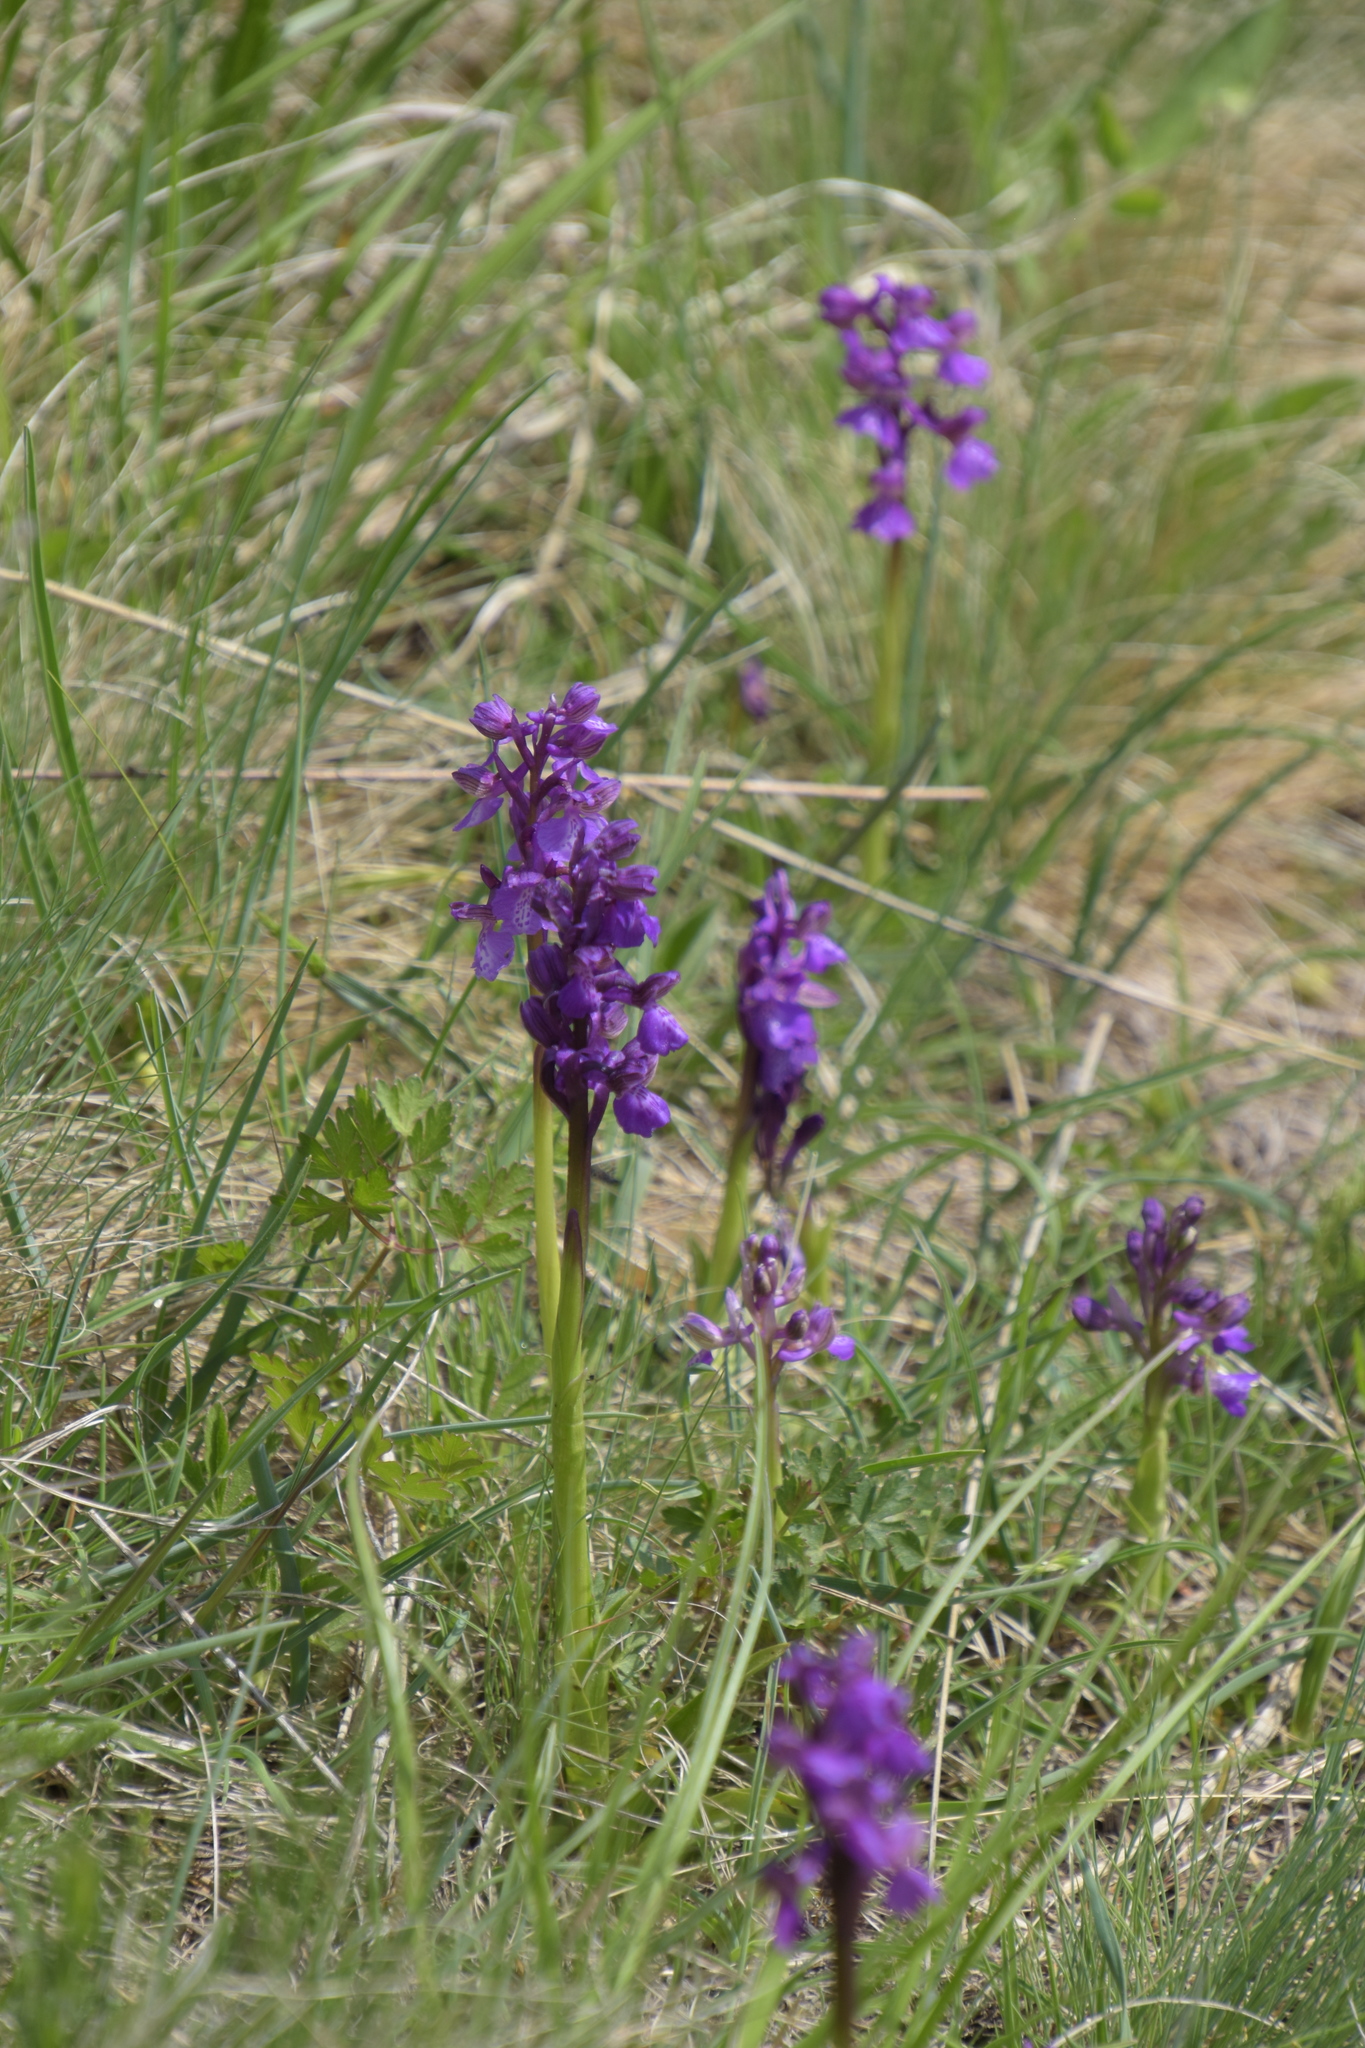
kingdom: Plantae
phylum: Tracheophyta
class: Liliopsida
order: Asparagales
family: Orchidaceae
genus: Anacamptis
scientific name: Anacamptis morio
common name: Green-winged orchid
